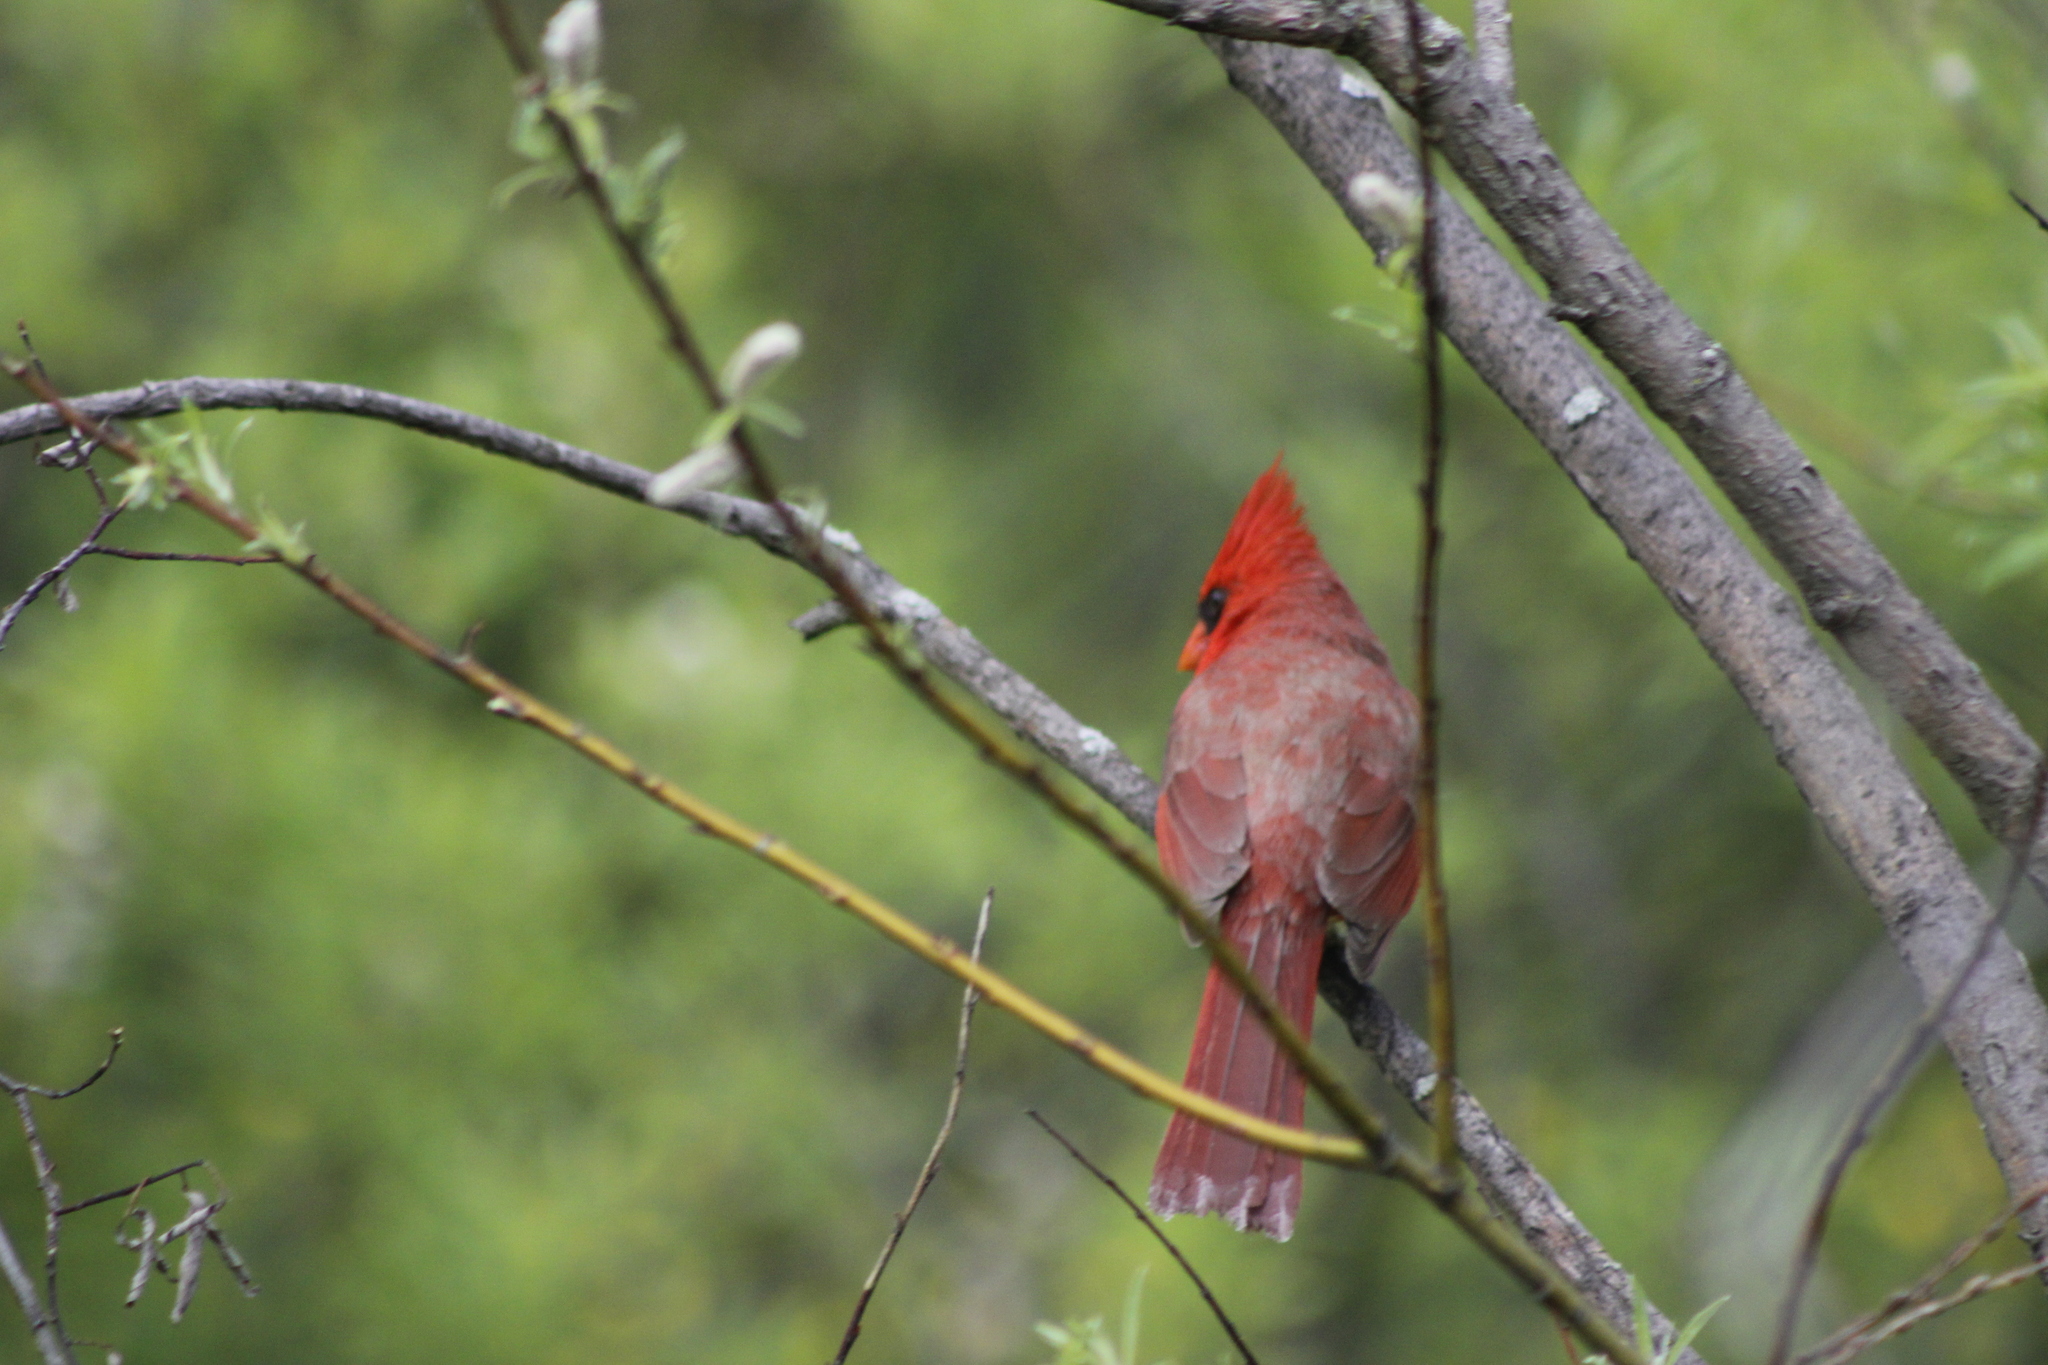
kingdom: Animalia
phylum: Chordata
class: Aves
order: Passeriformes
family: Cardinalidae
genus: Cardinalis
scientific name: Cardinalis cardinalis
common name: Northern cardinal
